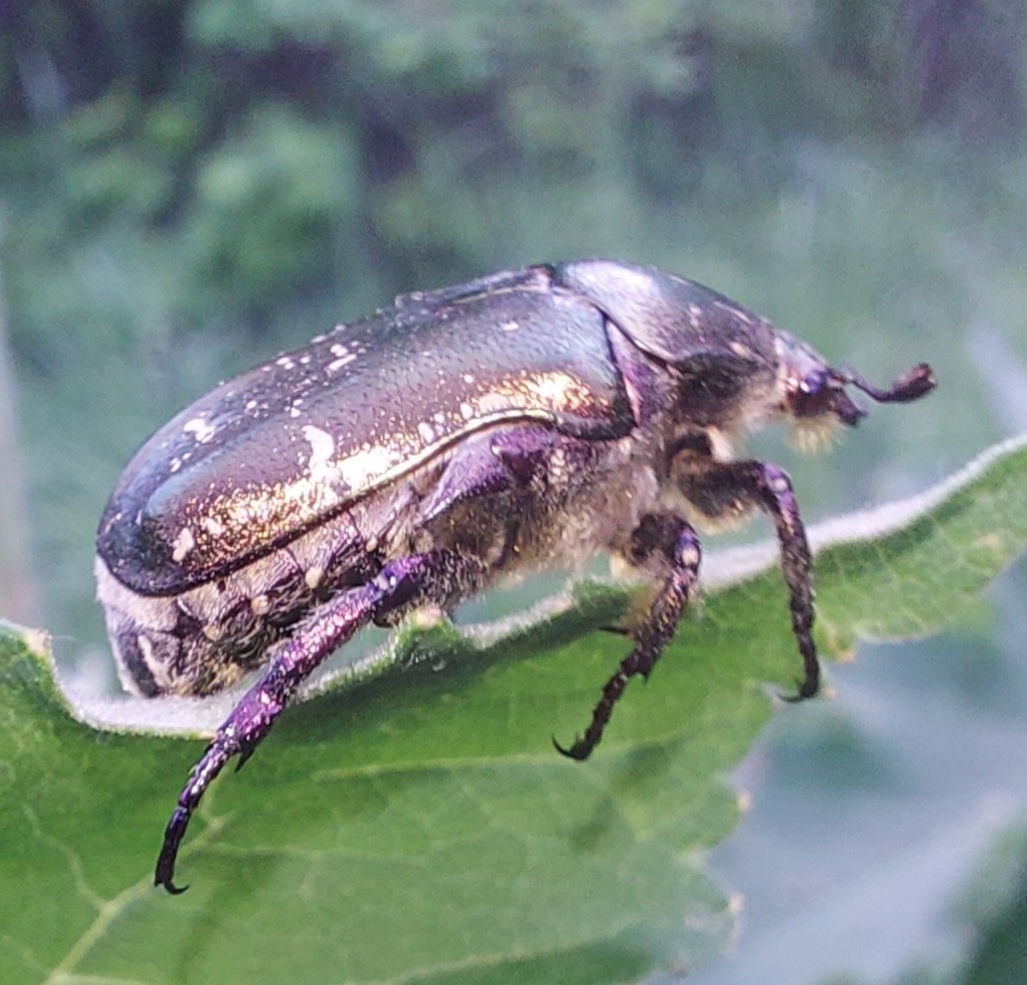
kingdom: Animalia
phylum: Arthropoda
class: Insecta
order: Coleoptera
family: Scarabaeidae
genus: Protaetia
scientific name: Protaetia cuprea
